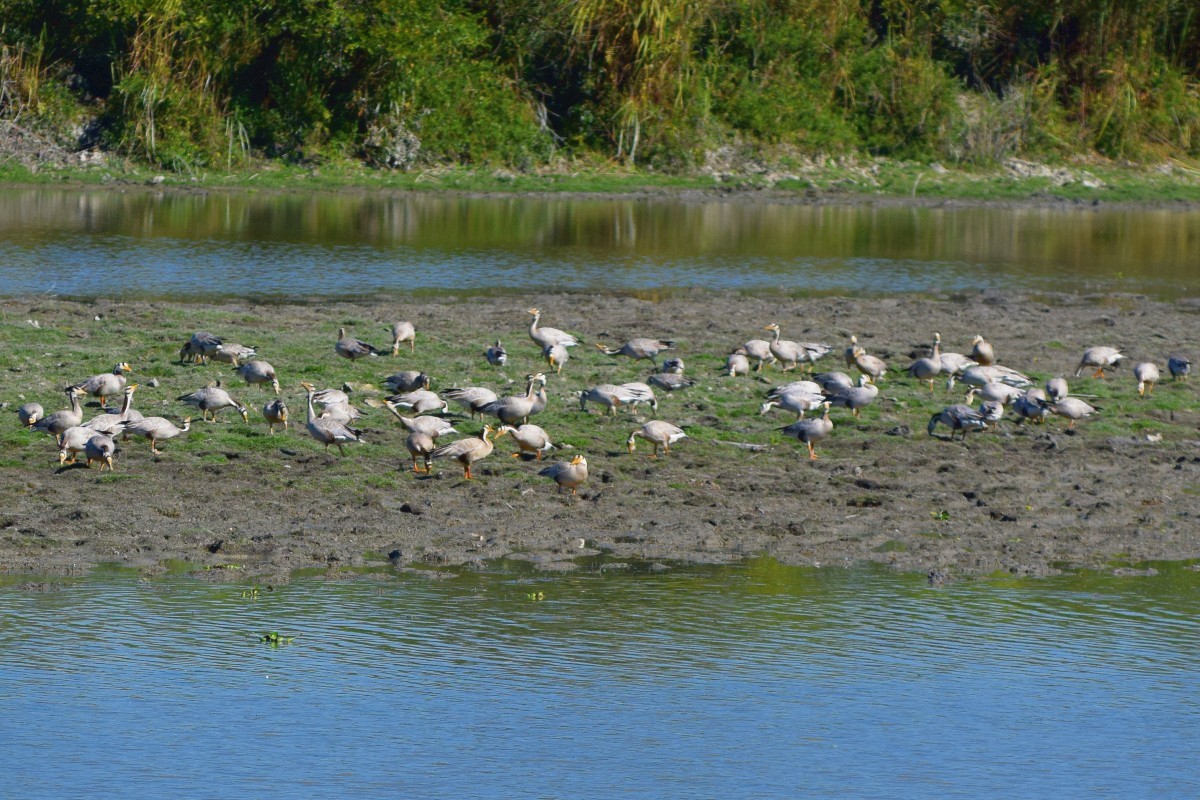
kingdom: Animalia
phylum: Chordata
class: Aves
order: Anseriformes
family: Anatidae
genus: Anser
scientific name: Anser indicus
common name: Bar-headed goose
